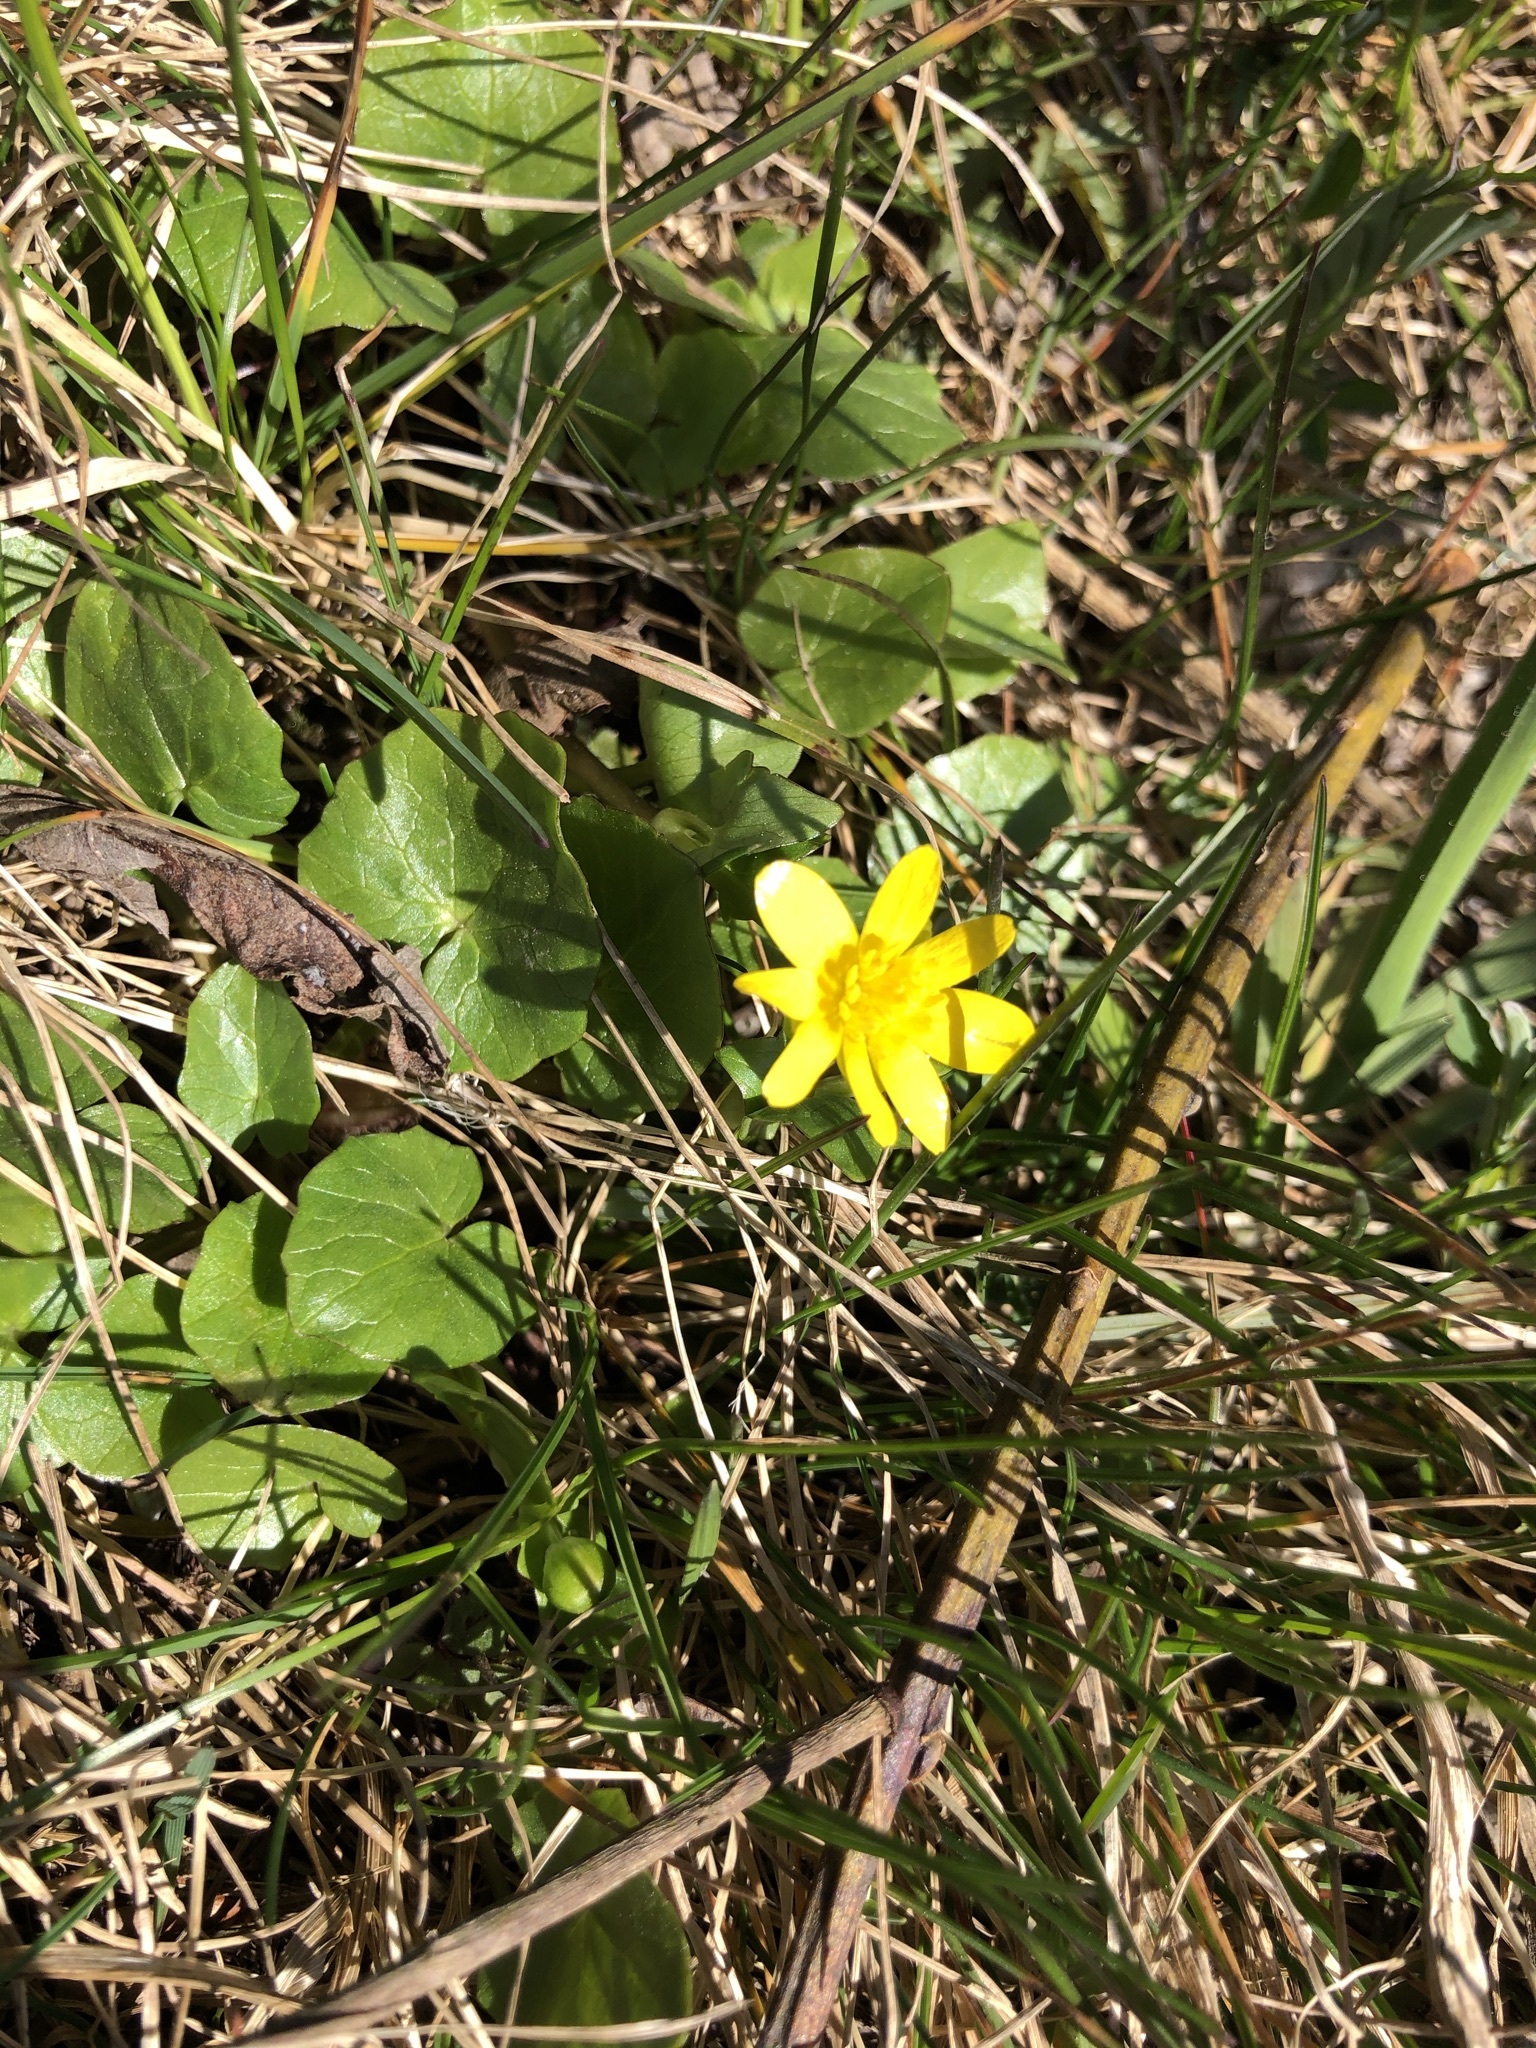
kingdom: Plantae
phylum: Tracheophyta
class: Magnoliopsida
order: Ranunculales
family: Ranunculaceae
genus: Ficaria
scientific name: Ficaria verna
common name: Lesser celandine
